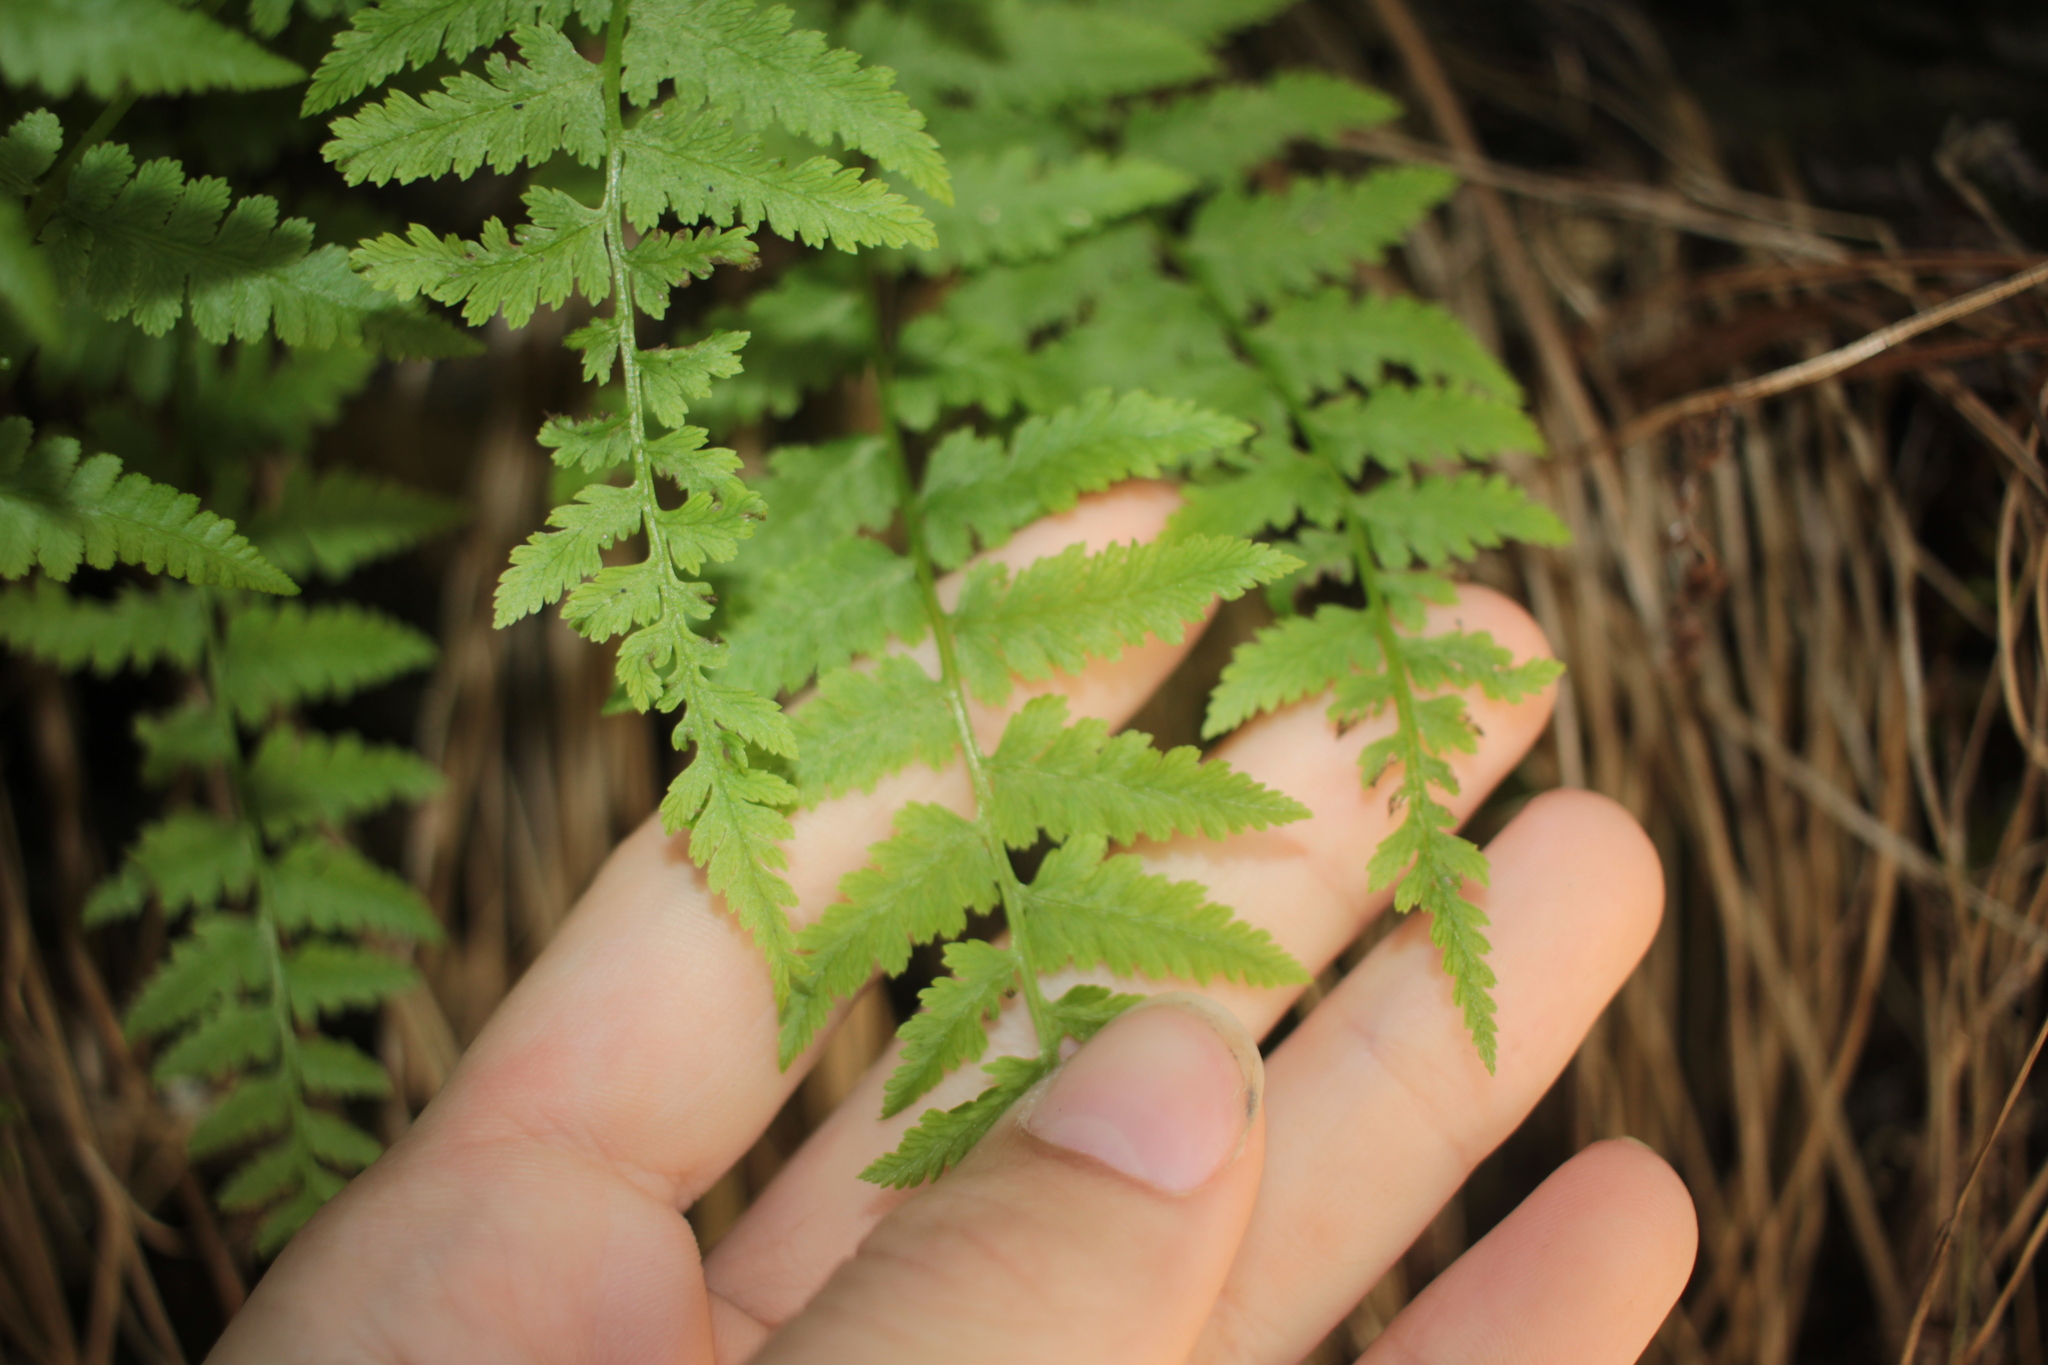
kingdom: Plantae
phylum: Tracheophyta
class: Polypodiopsida
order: Polypodiales
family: Athyriaceae
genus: Athyrium
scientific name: Athyrium asplenioides
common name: Southern lady fern
